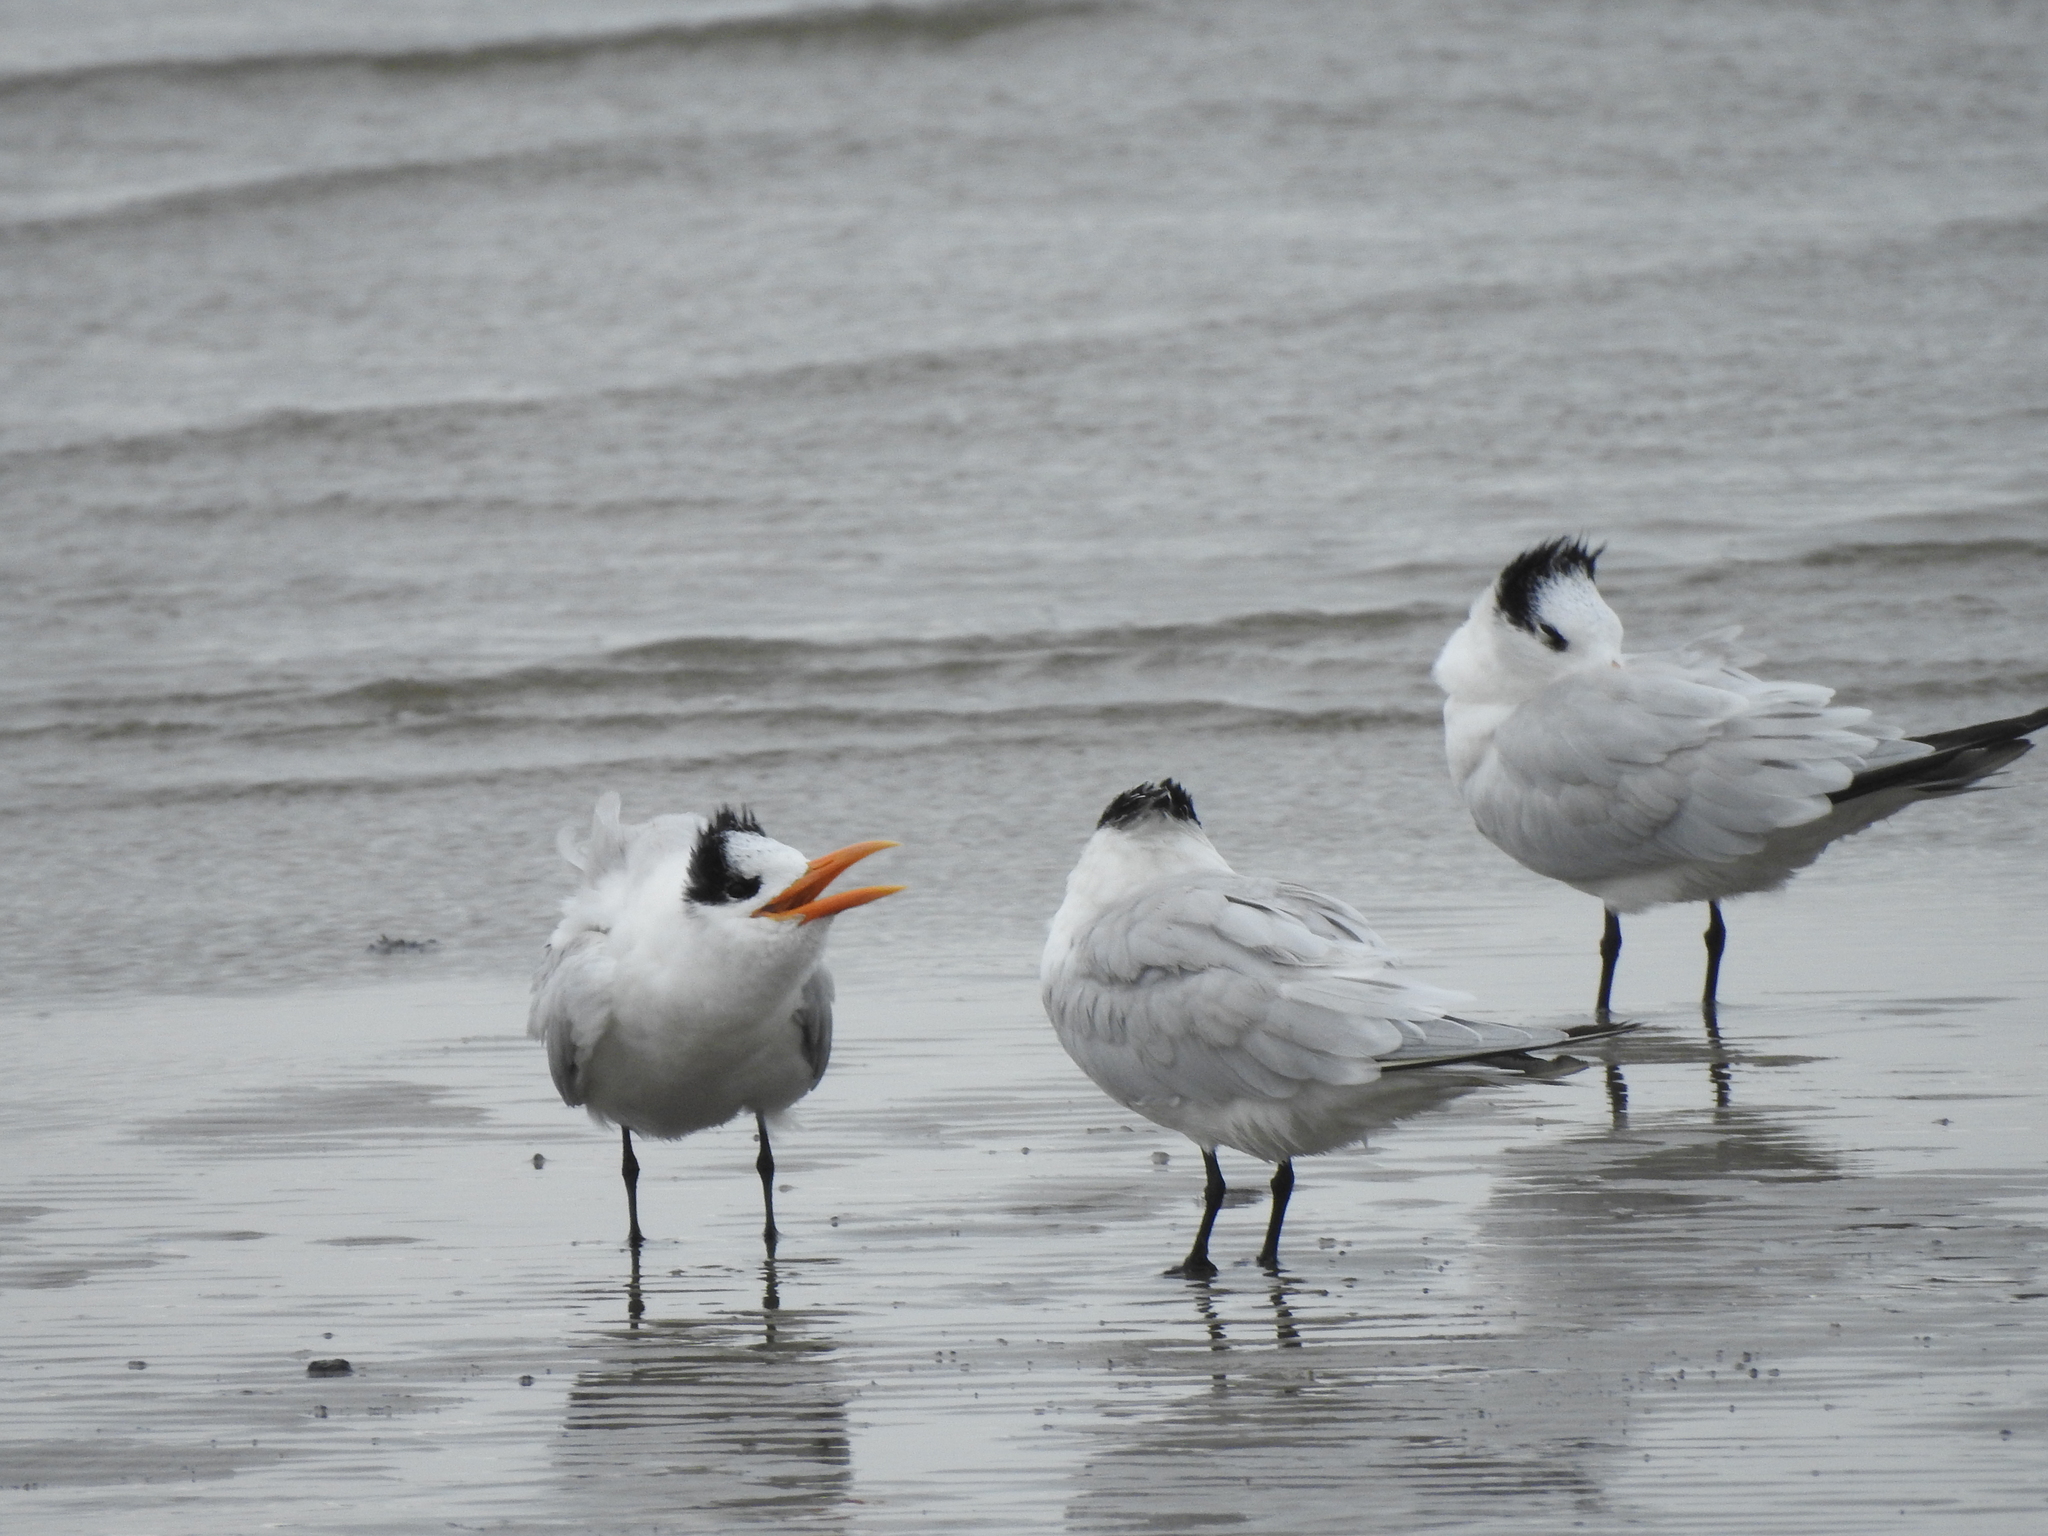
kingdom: Animalia
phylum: Chordata
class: Aves
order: Charadriiformes
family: Laridae
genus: Thalasseus
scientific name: Thalasseus maximus
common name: Royal tern
